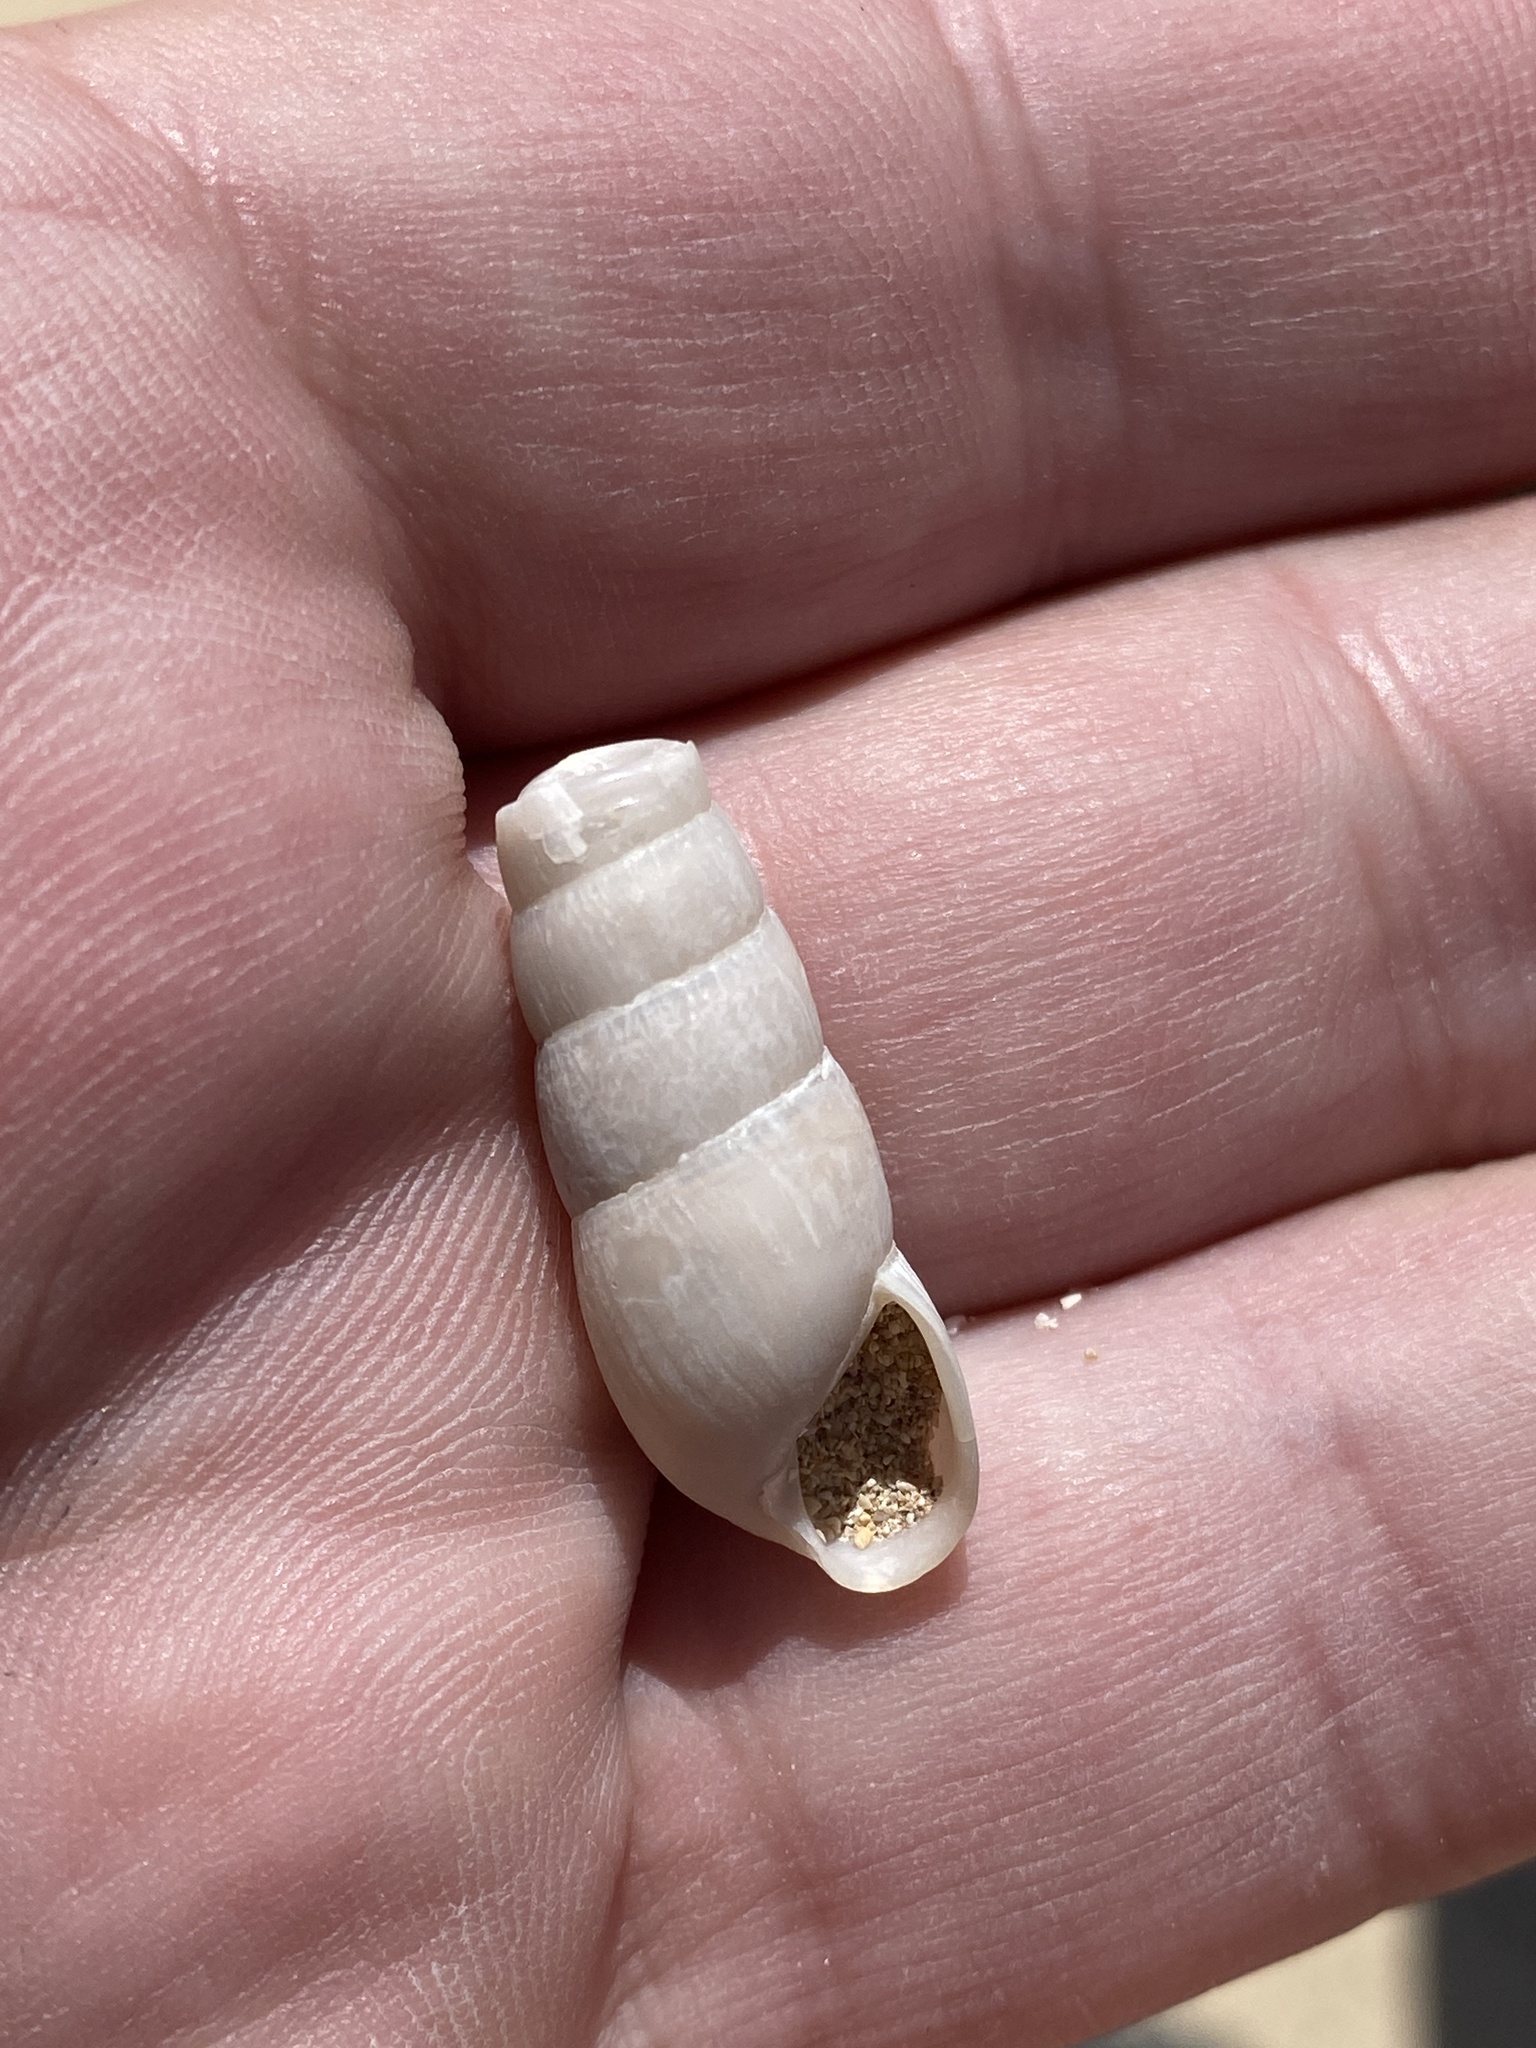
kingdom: Animalia
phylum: Mollusca
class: Gastropoda
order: Stylommatophora
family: Achatinidae
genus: Rumina
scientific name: Rumina decollata
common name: Decollate snail
